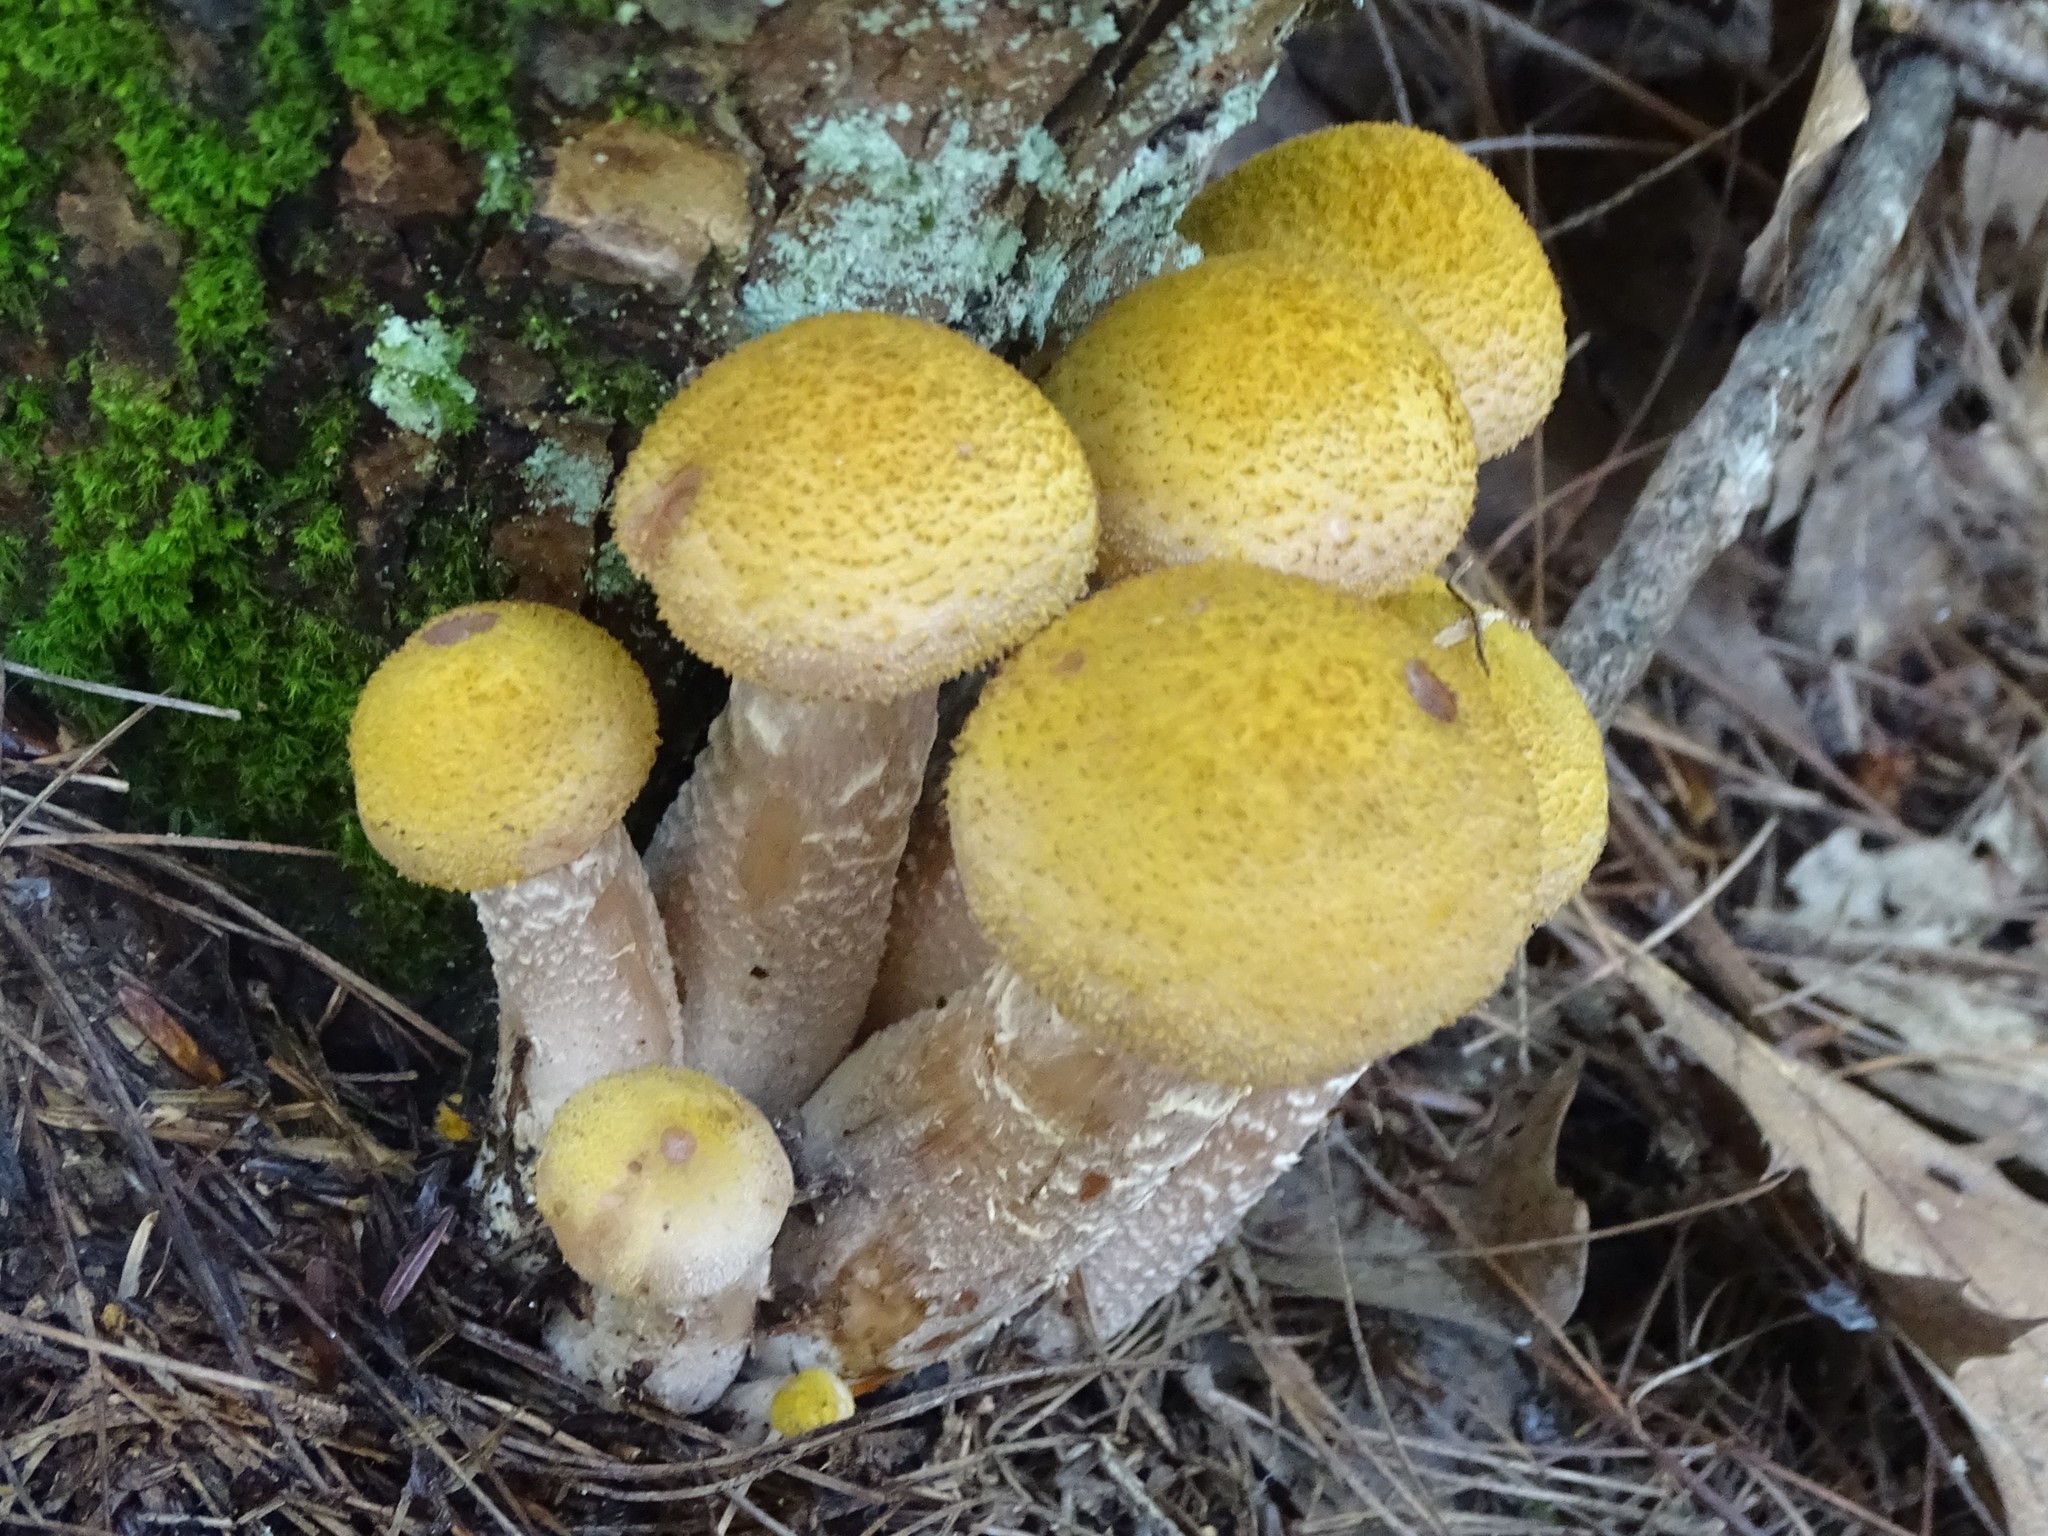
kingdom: Fungi
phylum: Basidiomycota
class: Agaricomycetes
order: Agaricales
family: Physalacriaceae
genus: Armillaria
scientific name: Armillaria mellea
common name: Honey fungus
